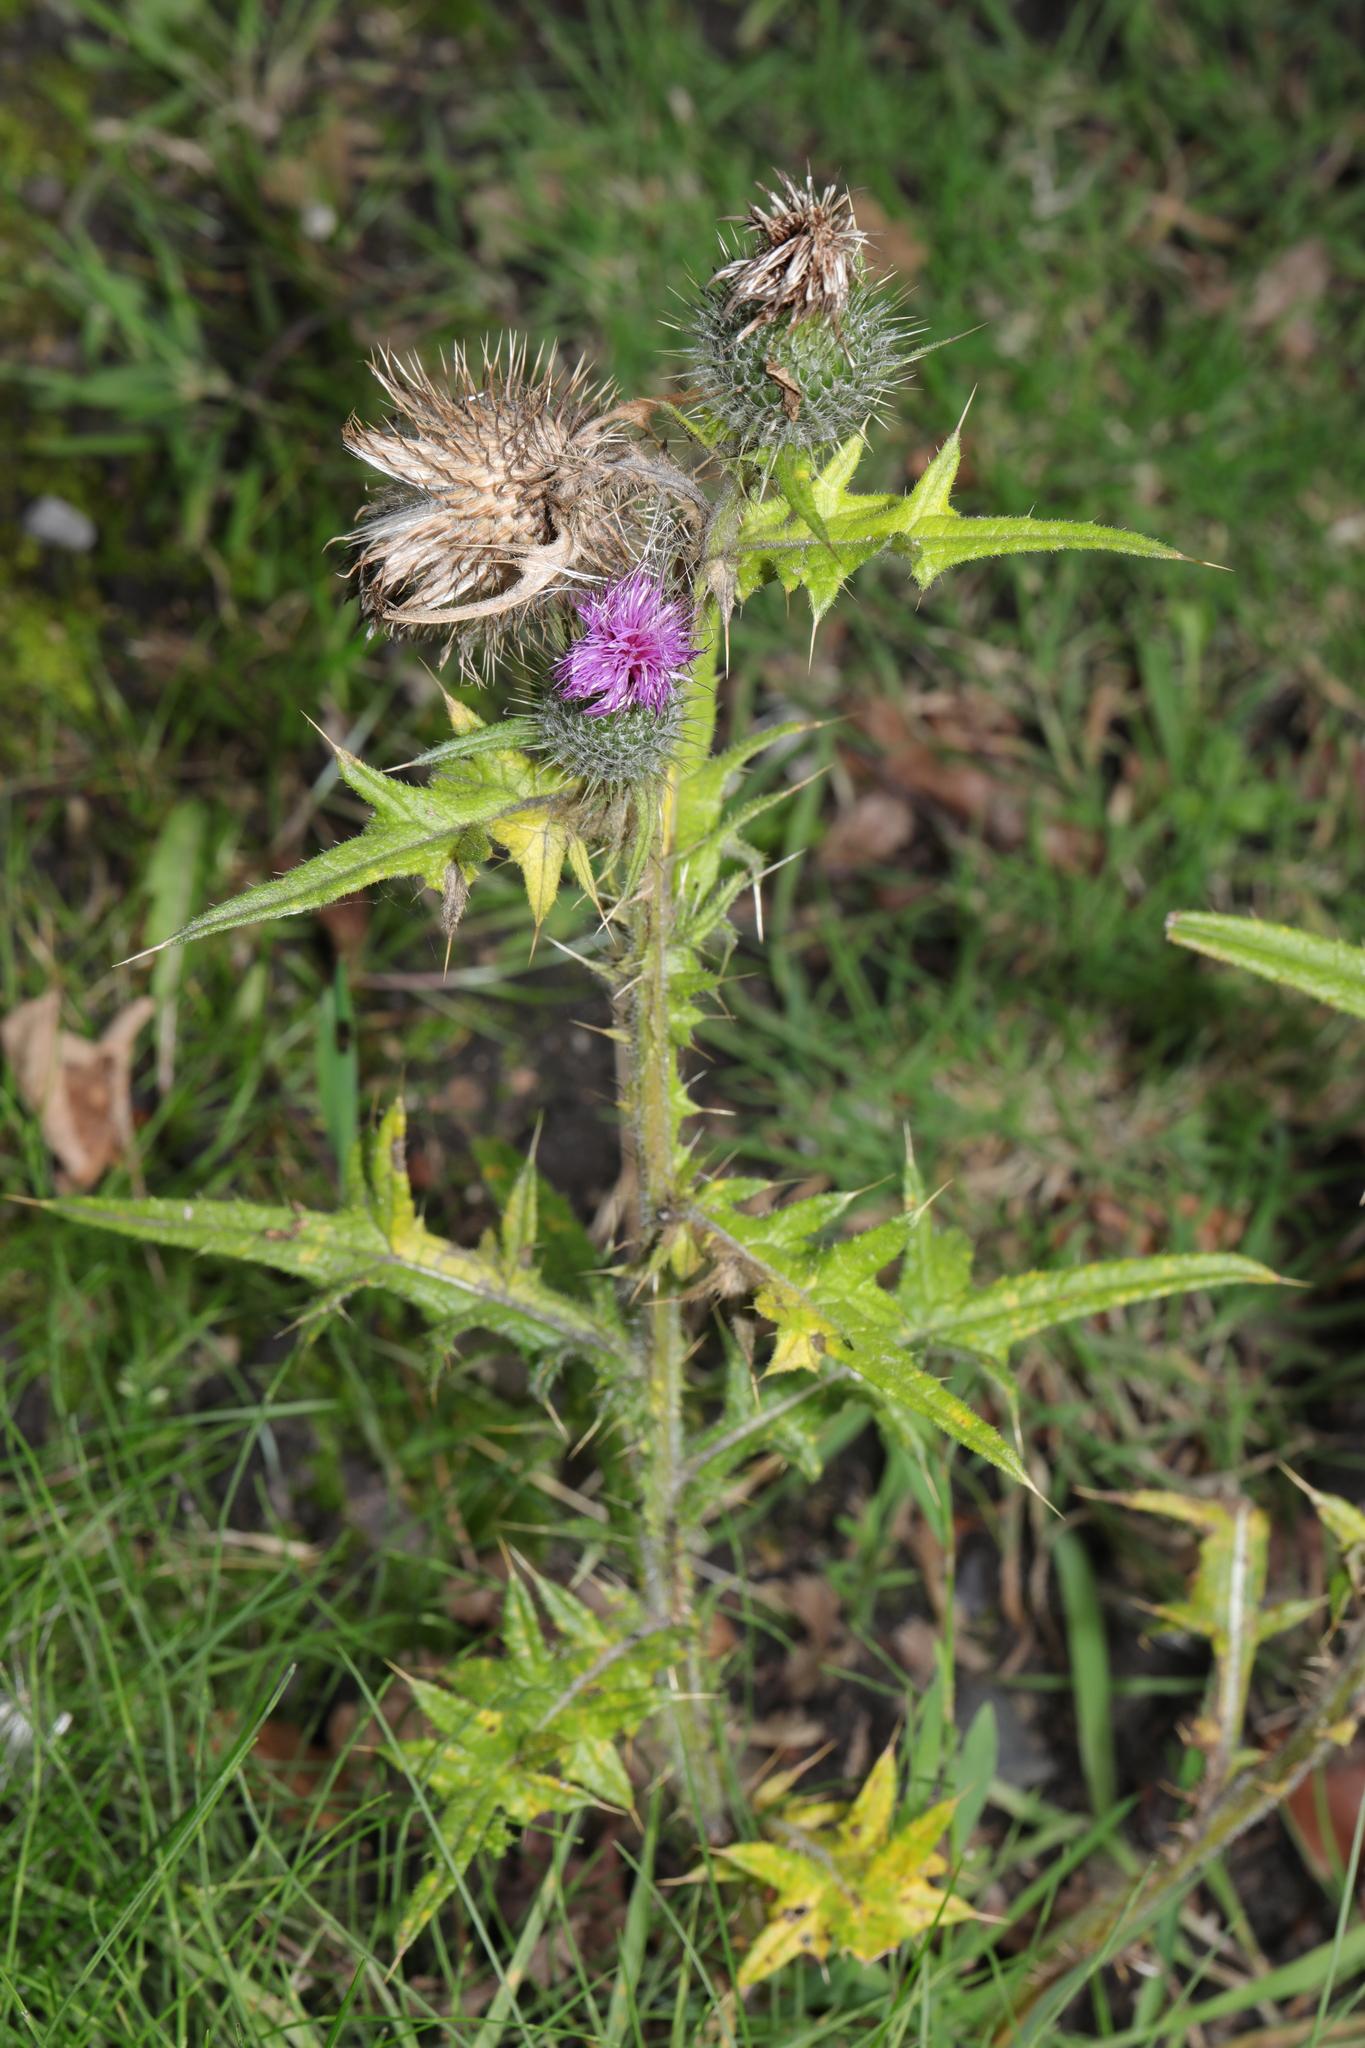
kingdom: Plantae
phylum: Tracheophyta
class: Magnoliopsida
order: Asterales
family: Asteraceae
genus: Cirsium
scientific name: Cirsium vulgare
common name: Bull thistle
